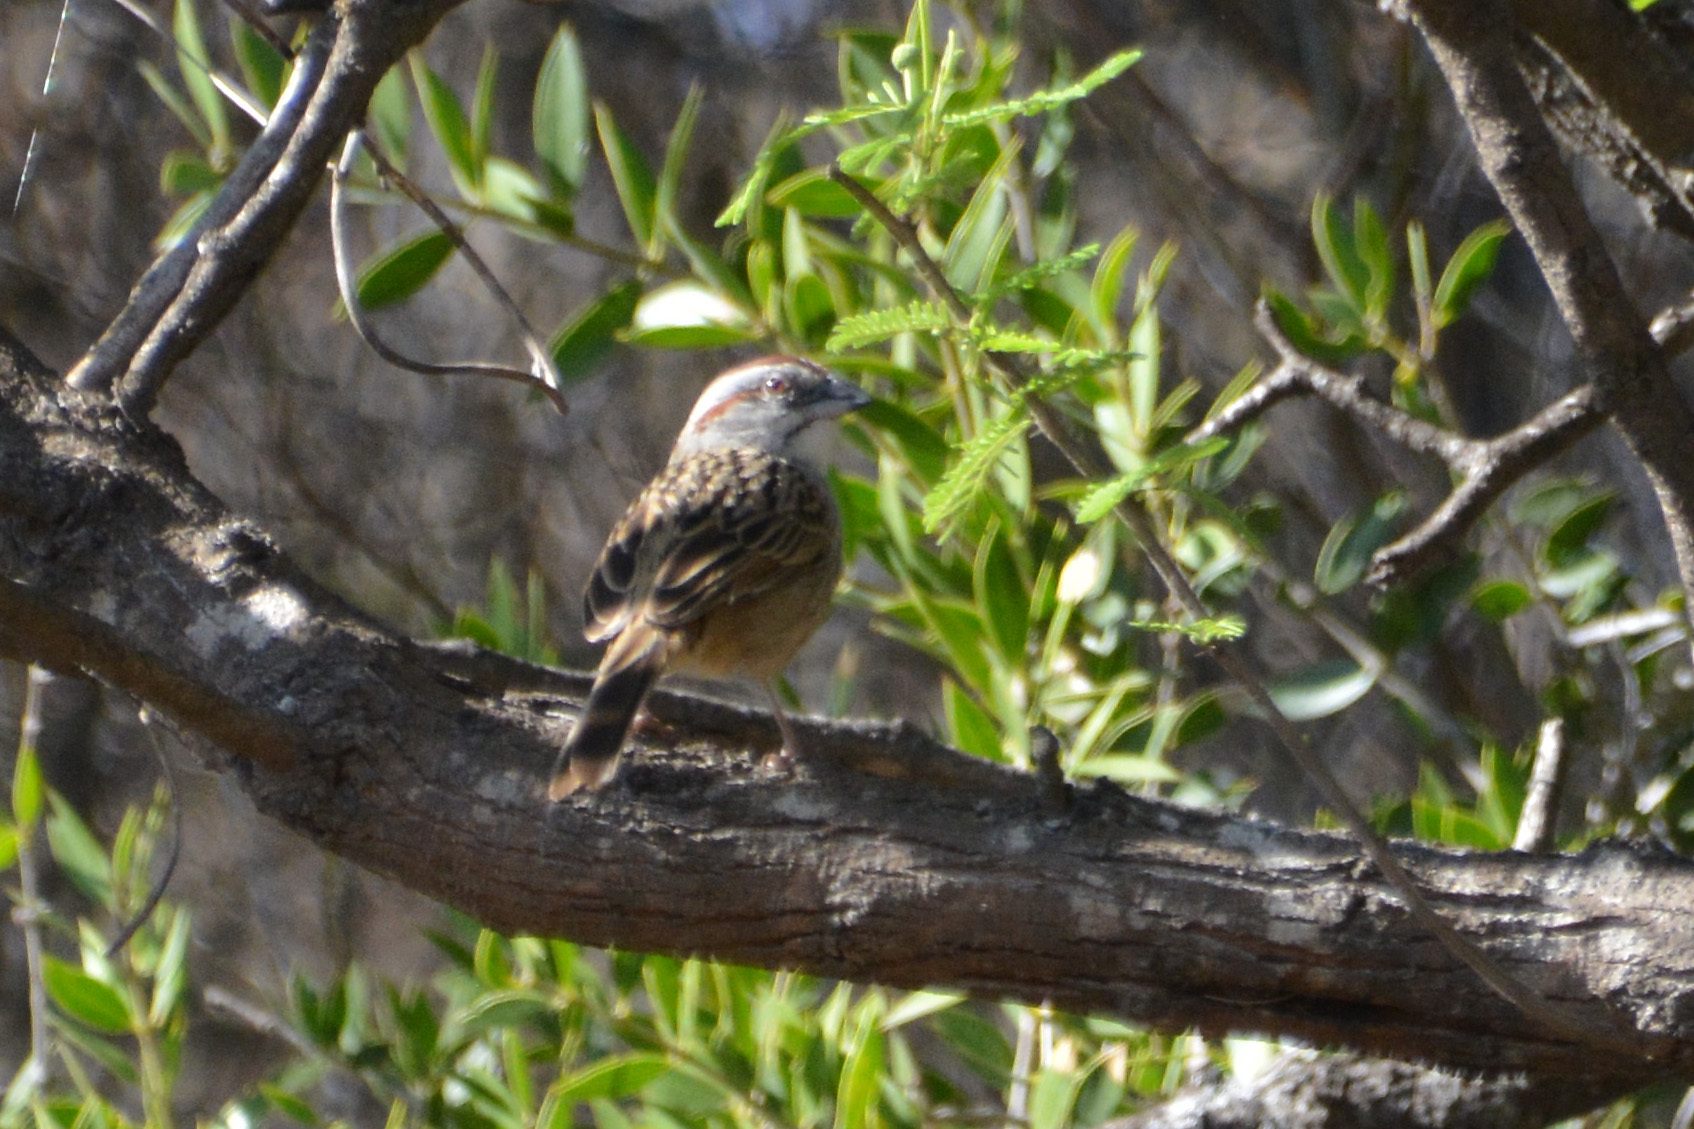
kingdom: Animalia
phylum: Chordata
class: Aves
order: Passeriformes
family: Passerellidae
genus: Rhynchospiza
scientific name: Rhynchospiza strigiceps
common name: Stripe-capped sparrow
